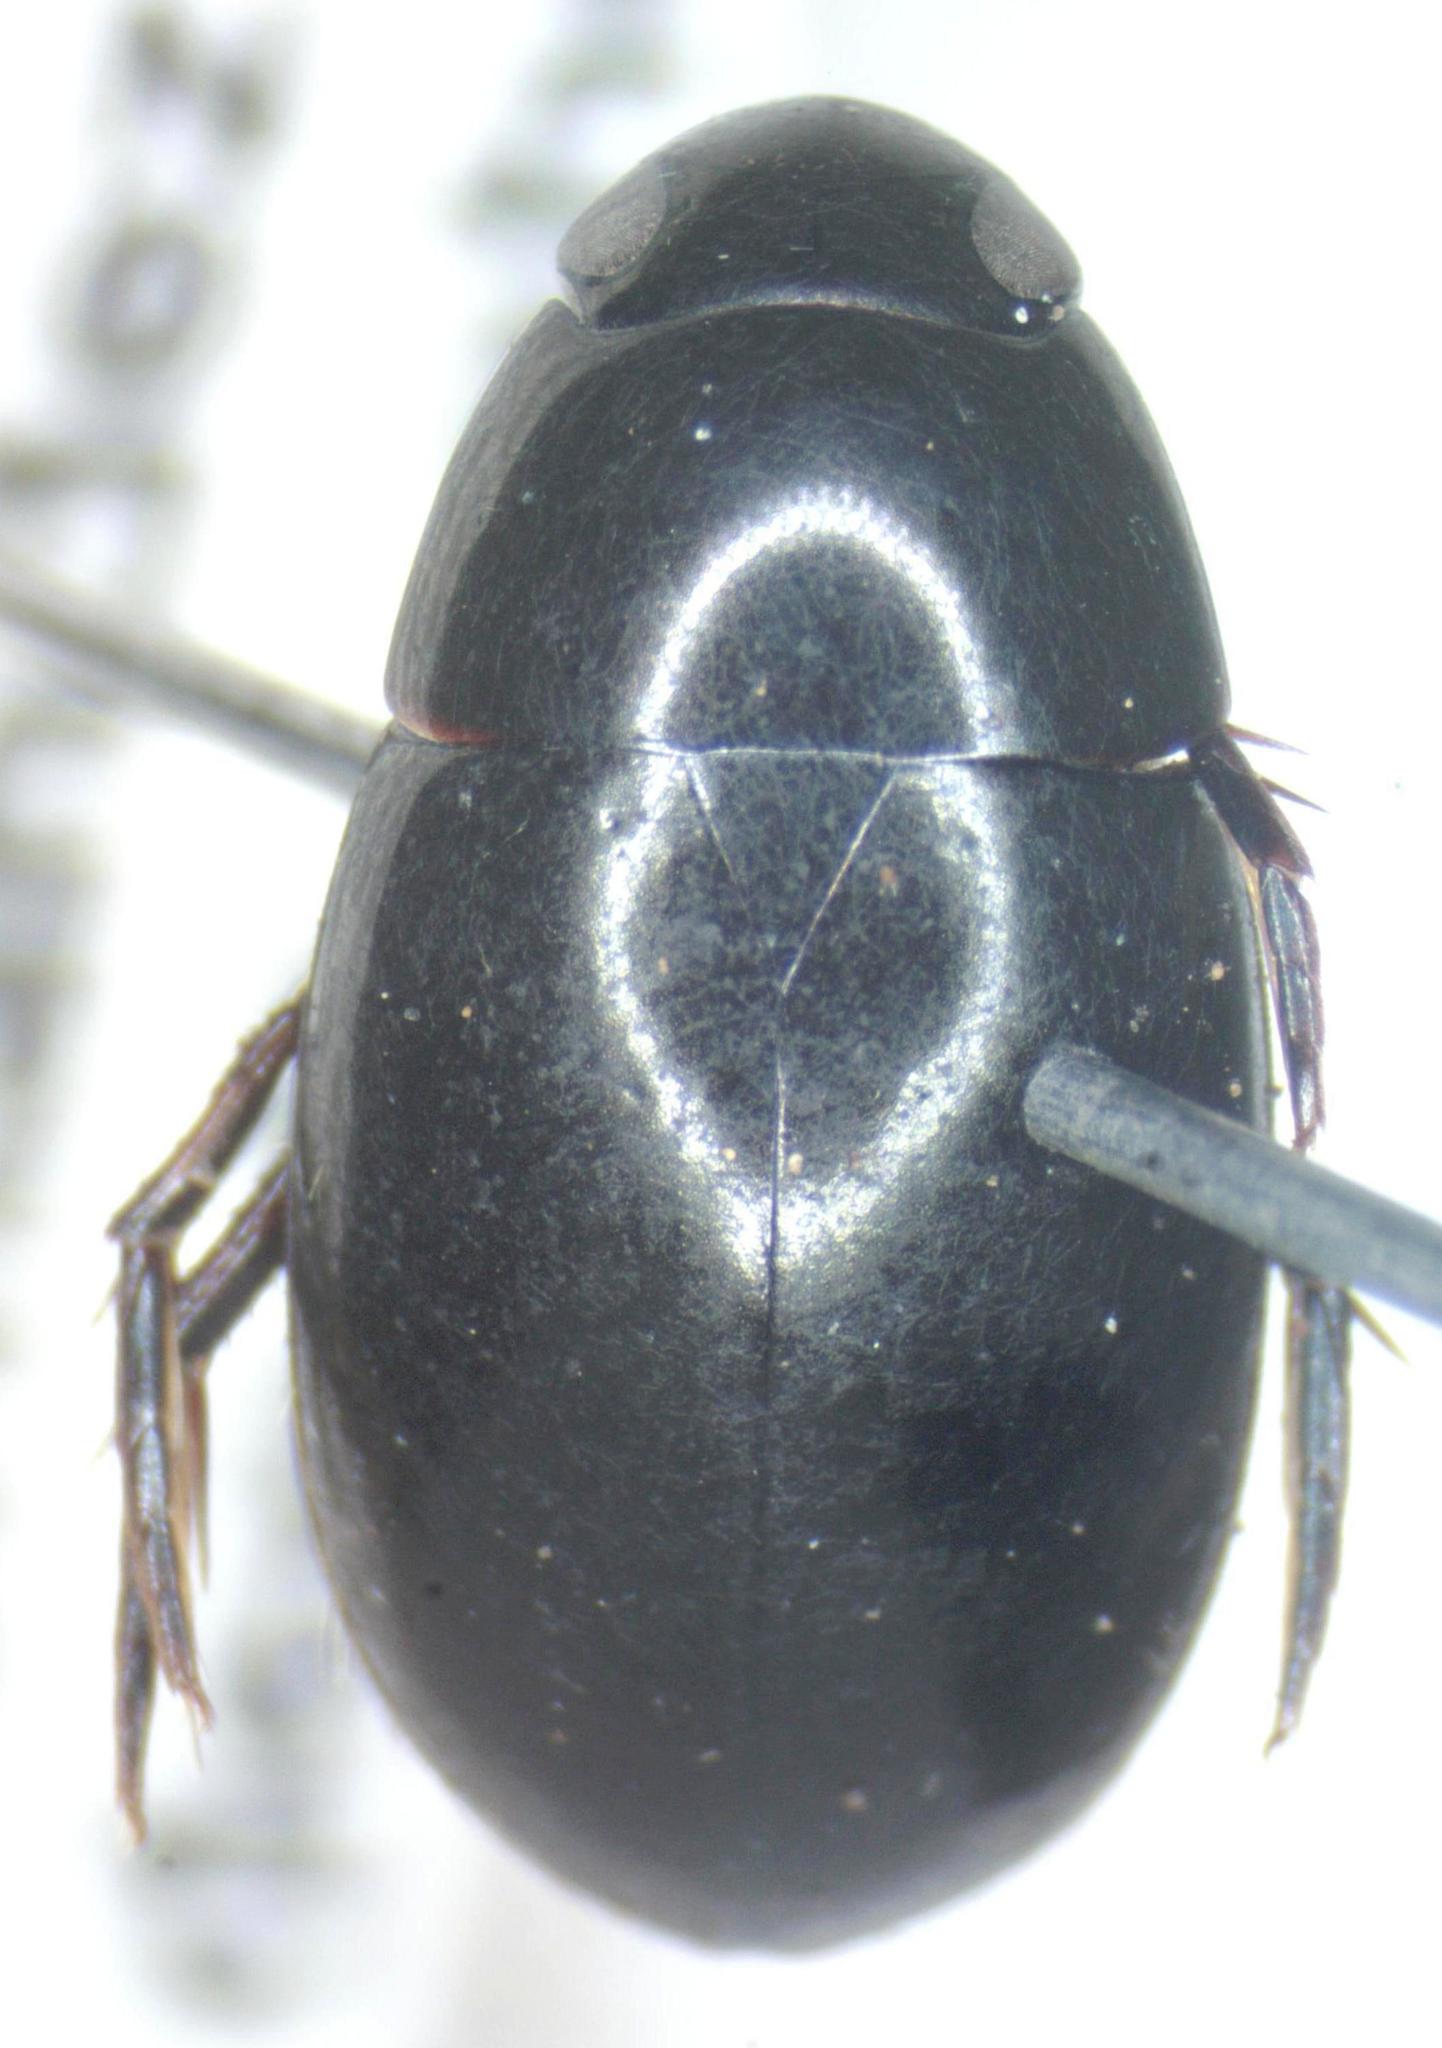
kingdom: Animalia
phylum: Arthropoda
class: Insecta
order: Coleoptera
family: Hydrophilidae
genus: Tropisternus
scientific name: Tropisternus
